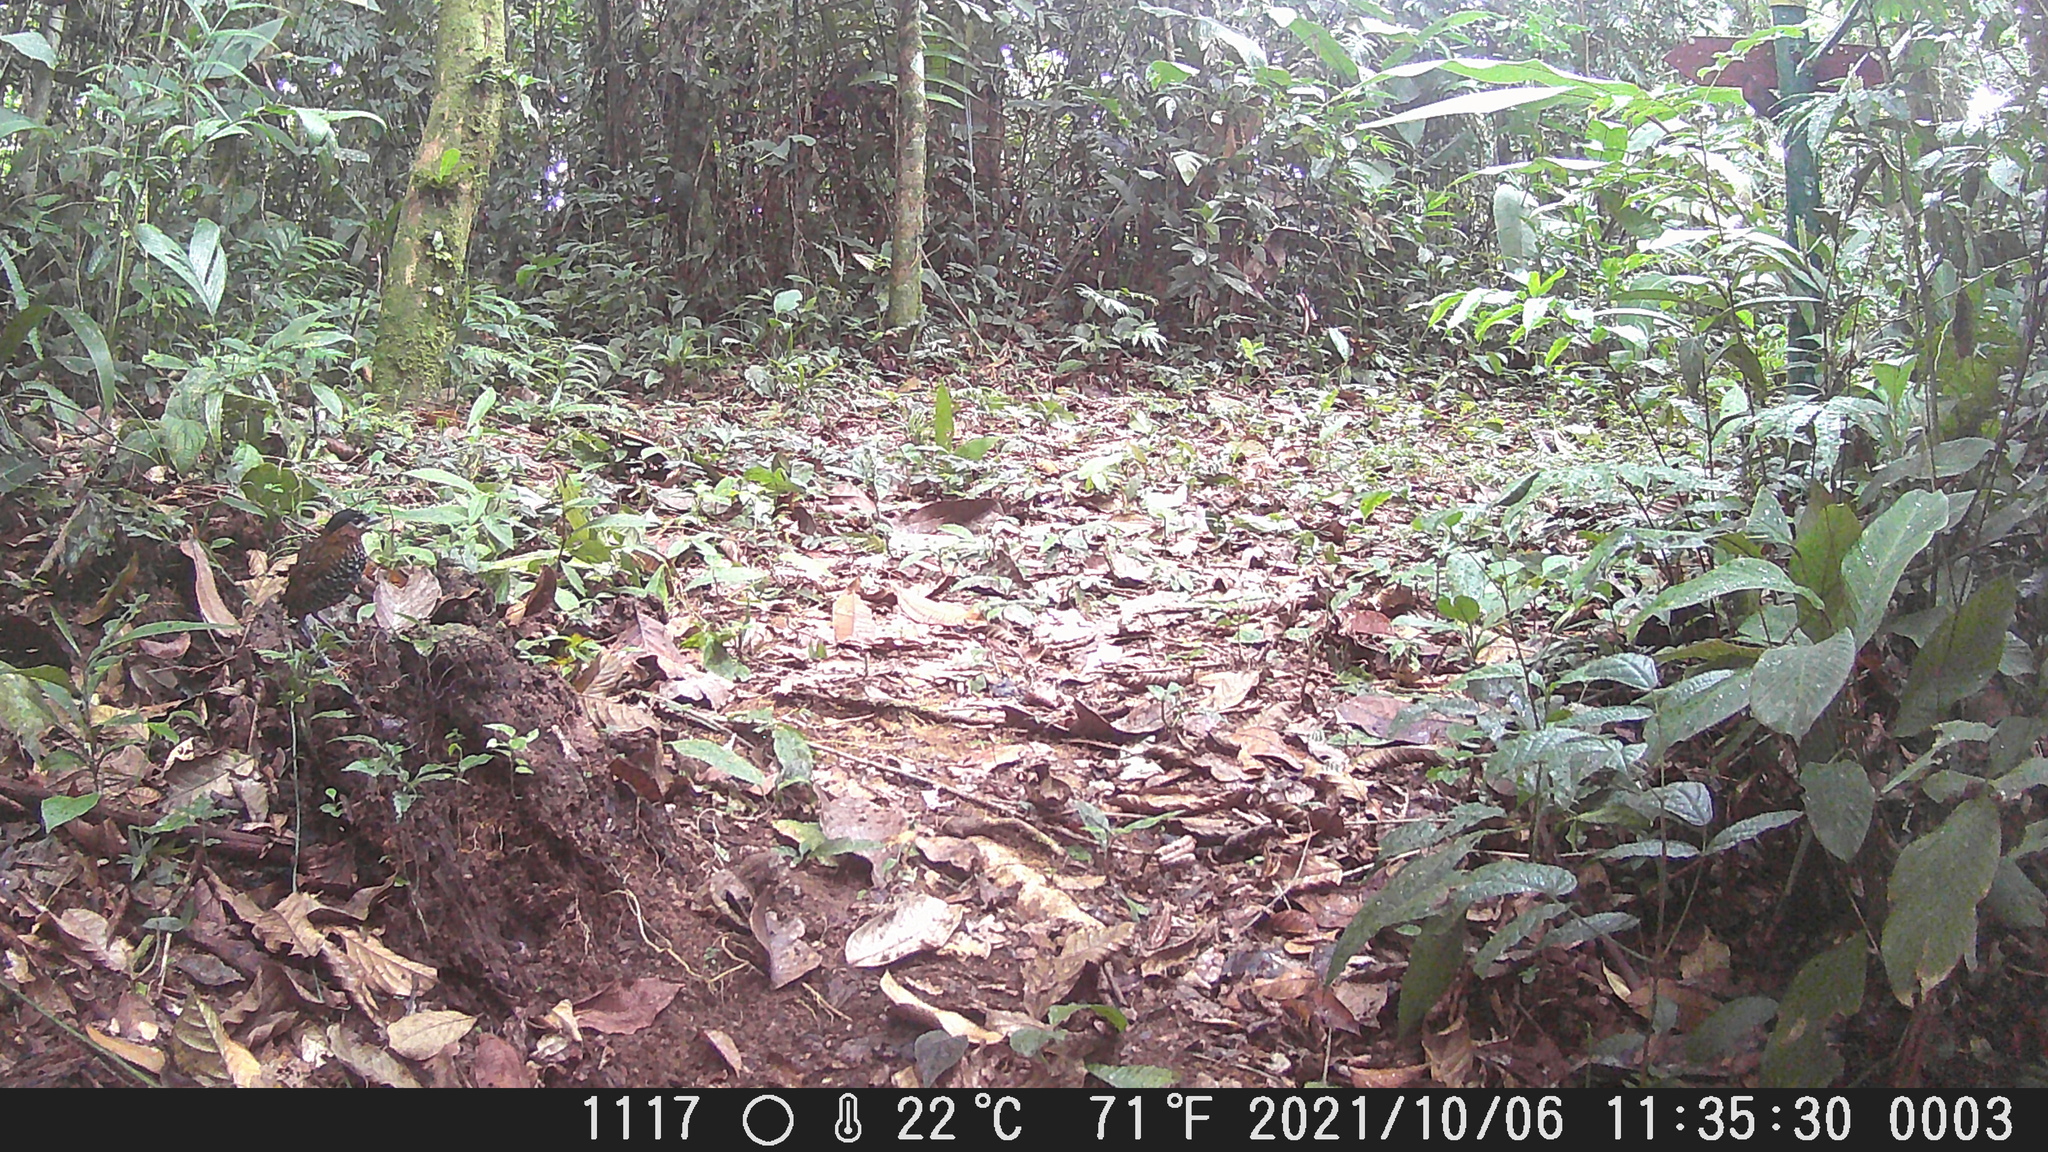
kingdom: Animalia
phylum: Chordata
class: Aves
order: Passeriformes
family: Conopophagidae
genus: Pittasoma
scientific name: Pittasoma michleri
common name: Black-crowned antpitta
